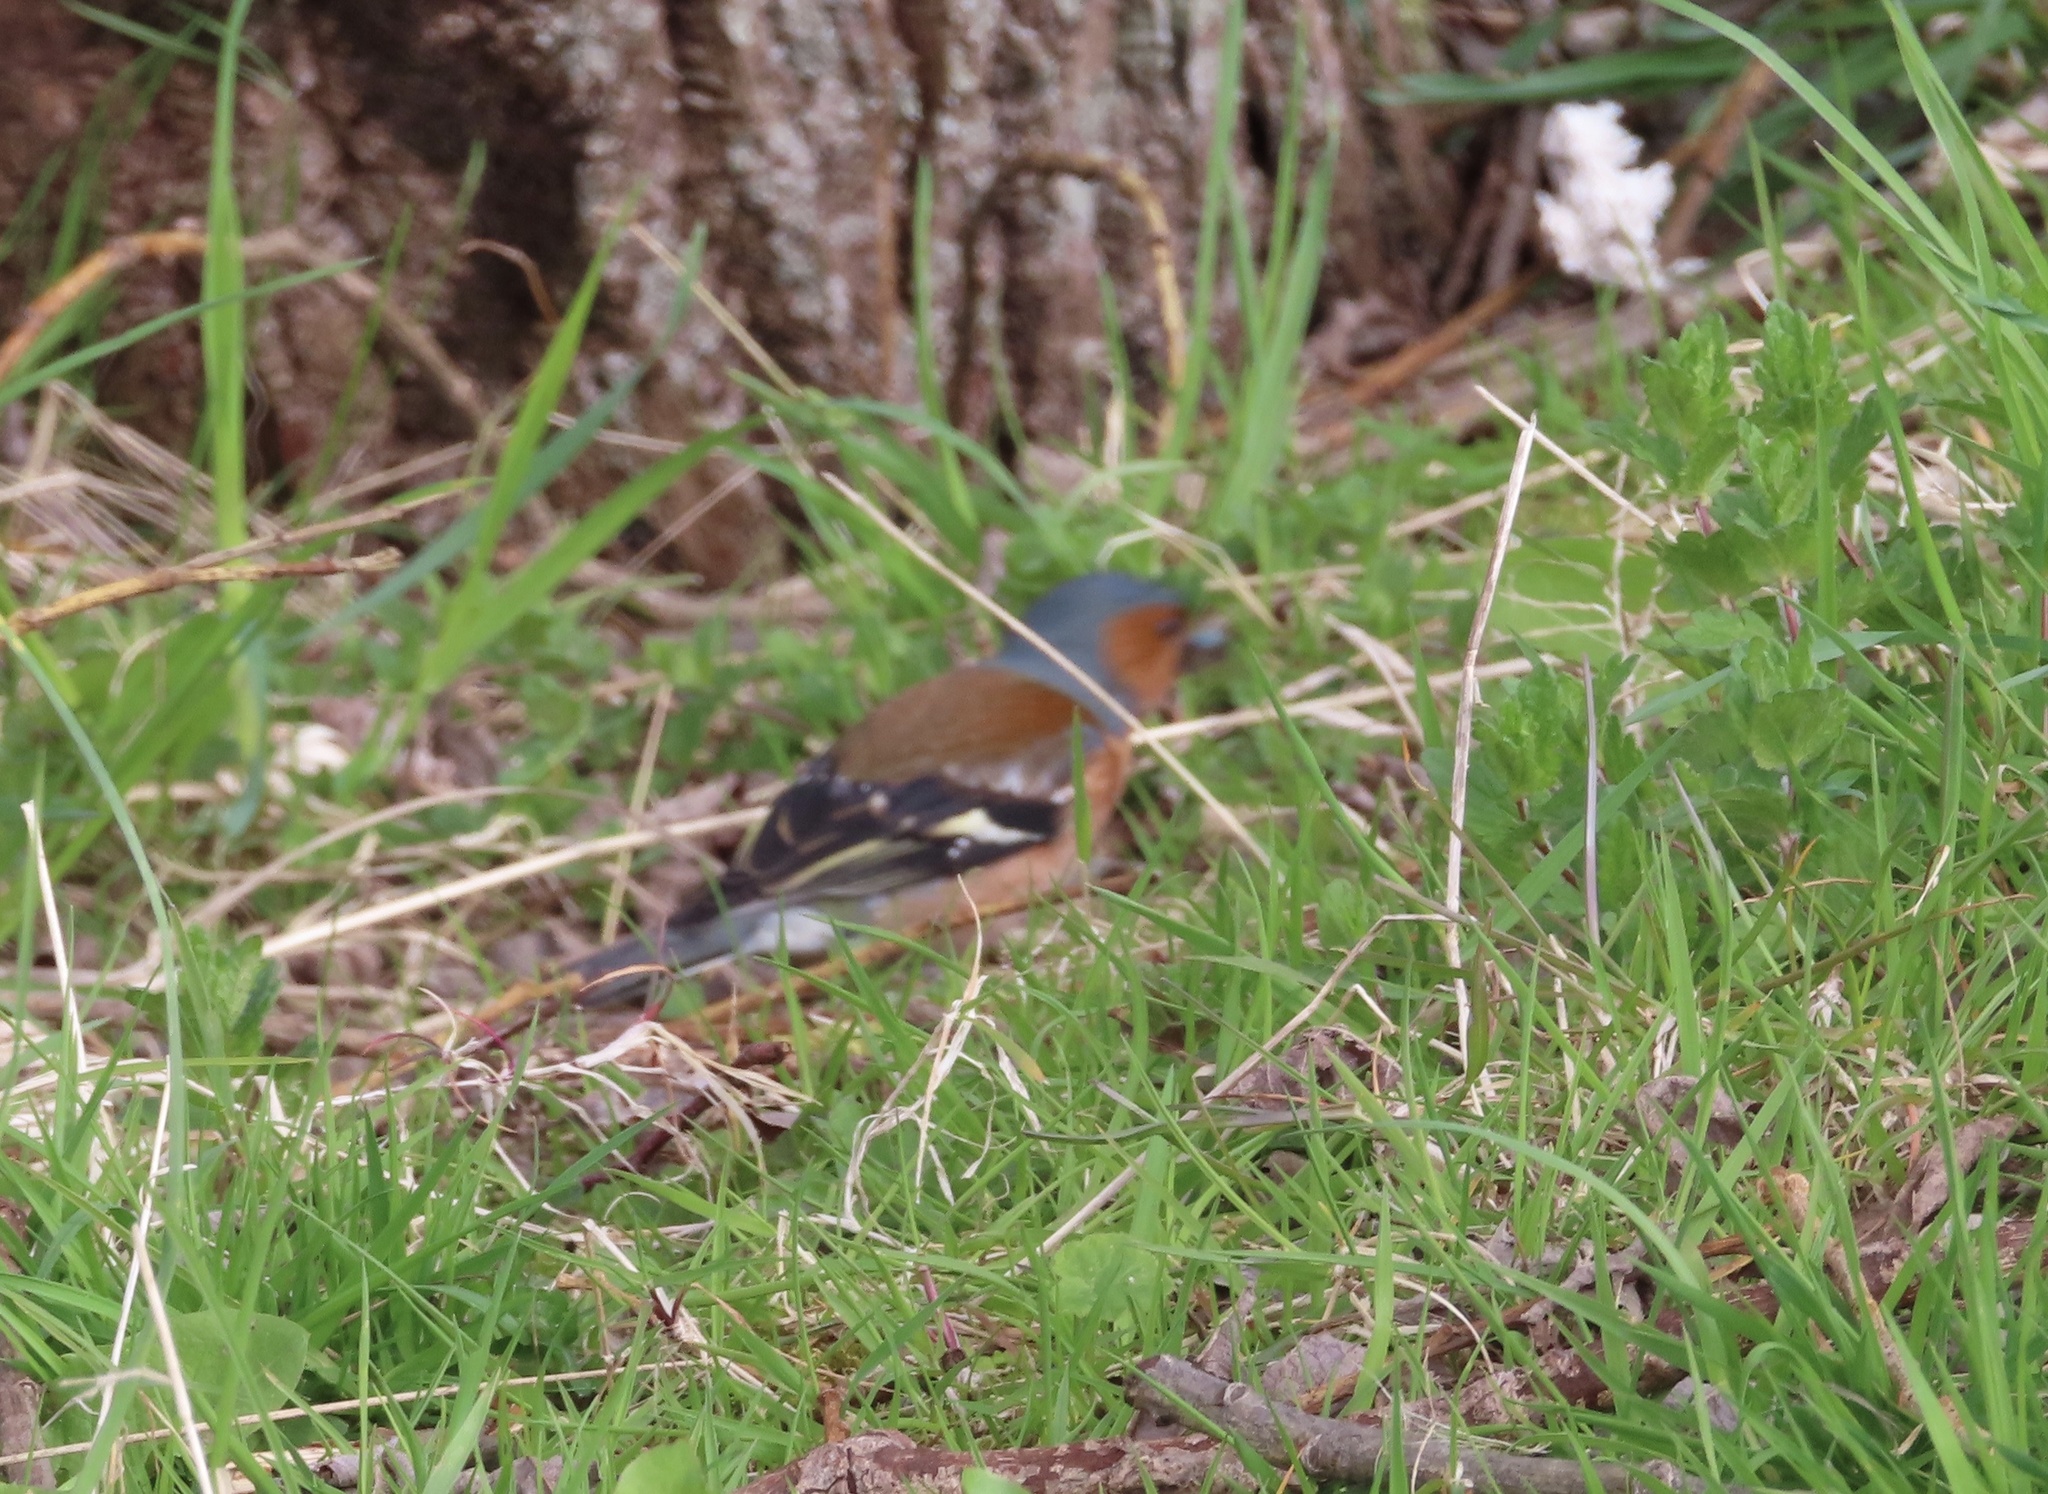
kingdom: Animalia
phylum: Chordata
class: Aves
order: Passeriformes
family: Fringillidae
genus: Fringilla
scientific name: Fringilla coelebs
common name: Common chaffinch
